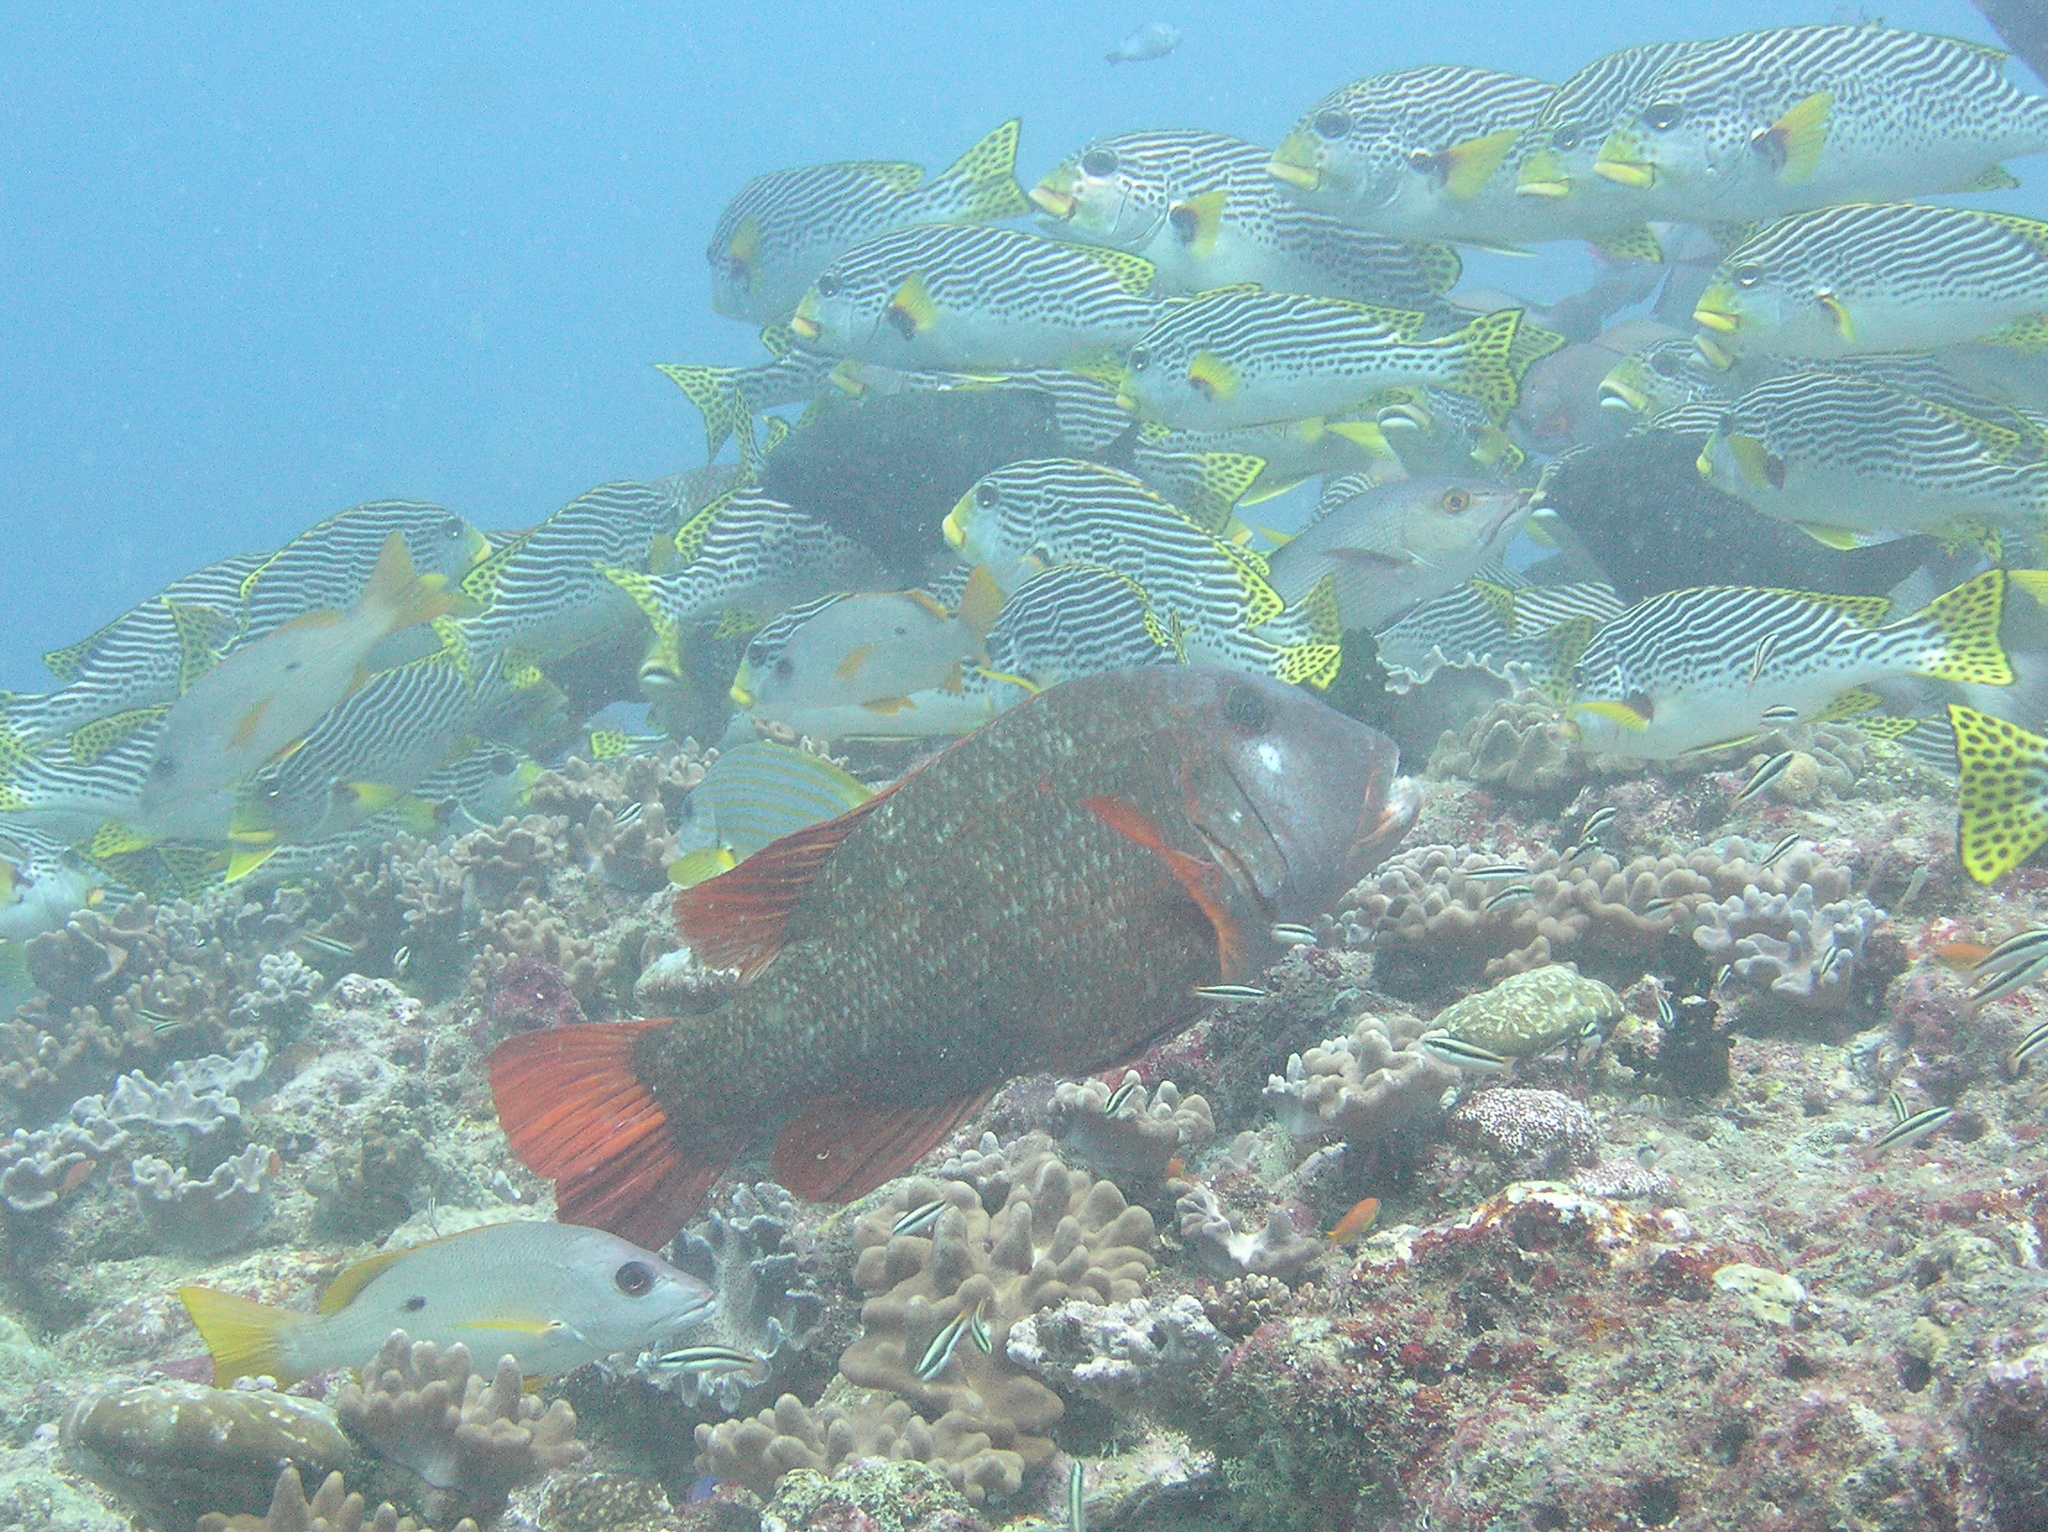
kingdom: Animalia
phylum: Chordata
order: Perciformes
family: Lutjanidae
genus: Lutjanus
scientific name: Lutjanus monostigma
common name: Onespot snapper
